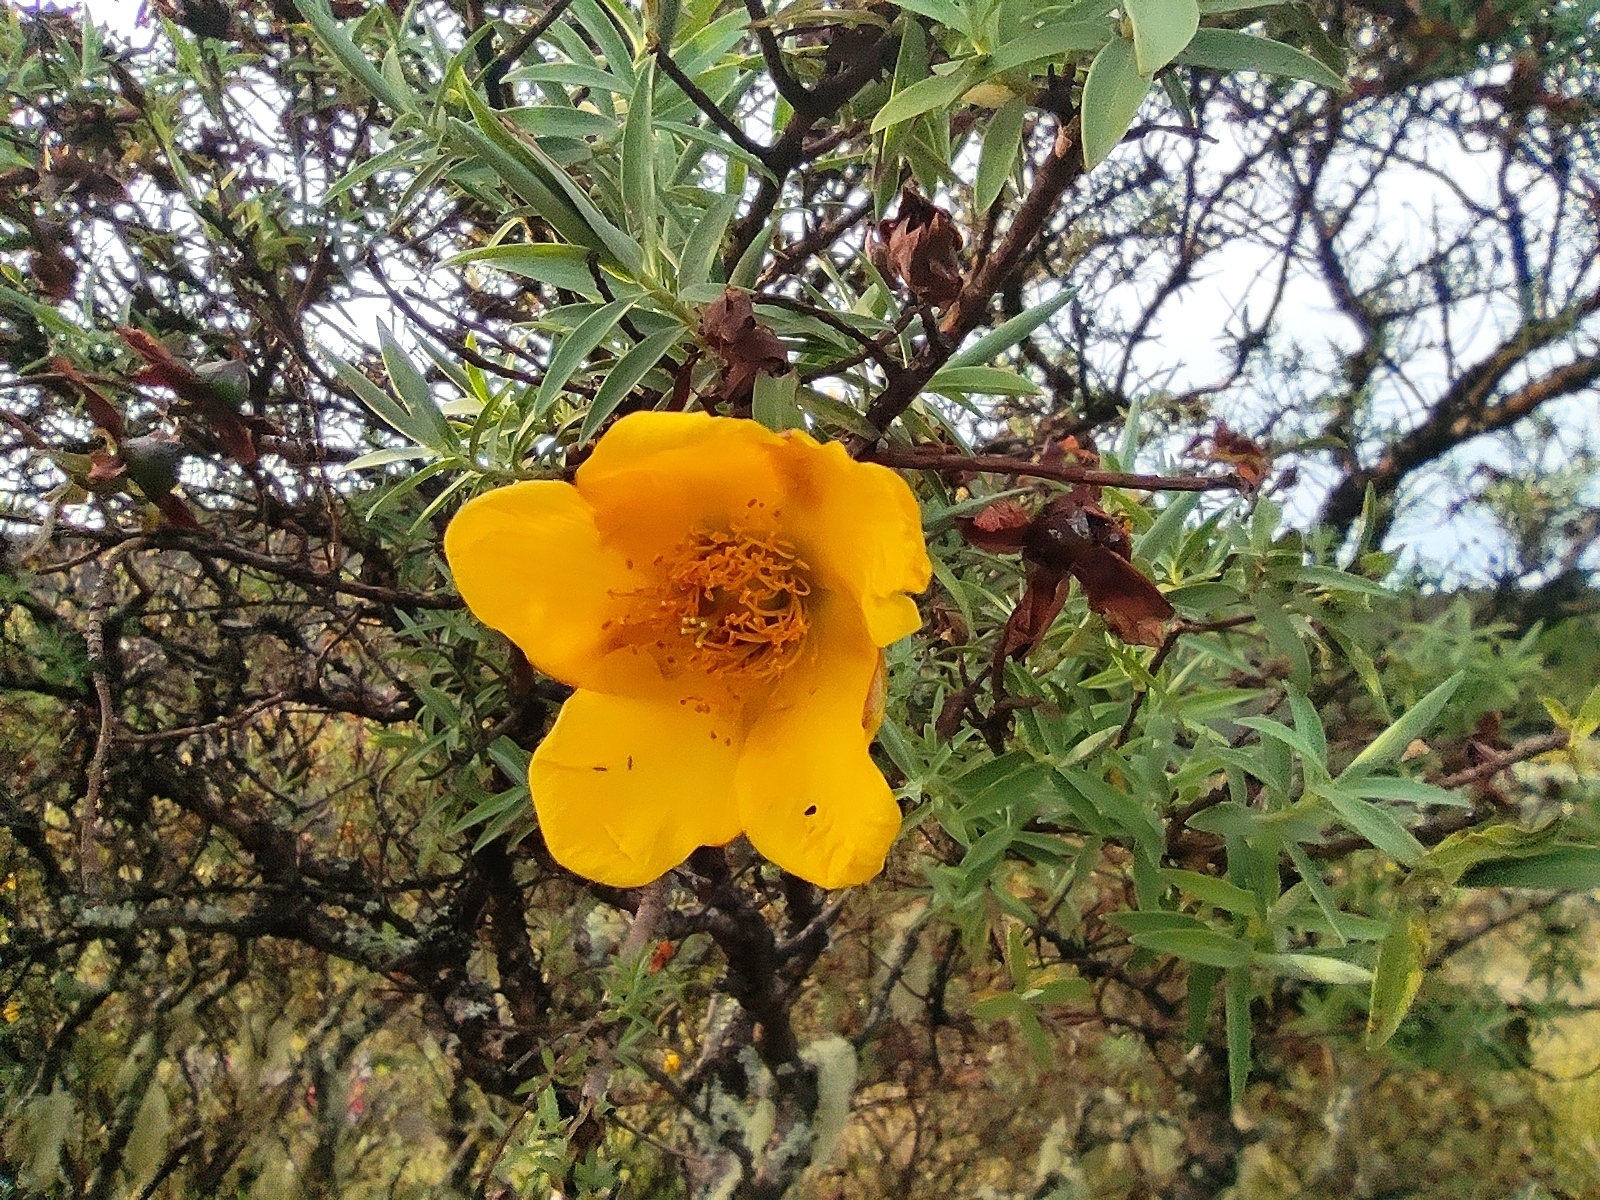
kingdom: Plantae
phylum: Tracheophyta
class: Magnoliopsida
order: Malpighiales
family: Hypericaceae
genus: Hypericum
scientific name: Hypericum lanceolatum
